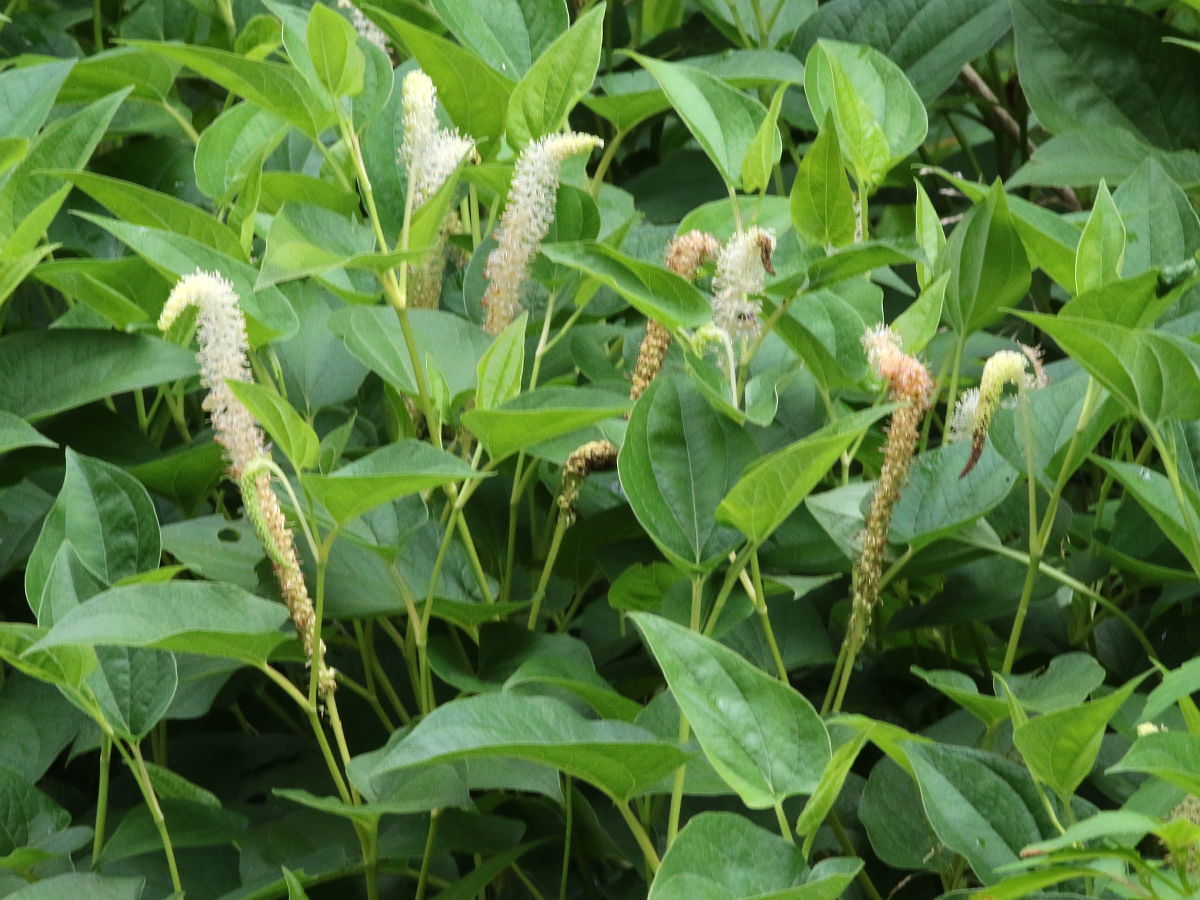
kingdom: Plantae
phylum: Tracheophyta
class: Magnoliopsida
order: Piperales
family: Saururaceae
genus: Saururus
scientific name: Saururus cernuus
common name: Lizard's-tail
